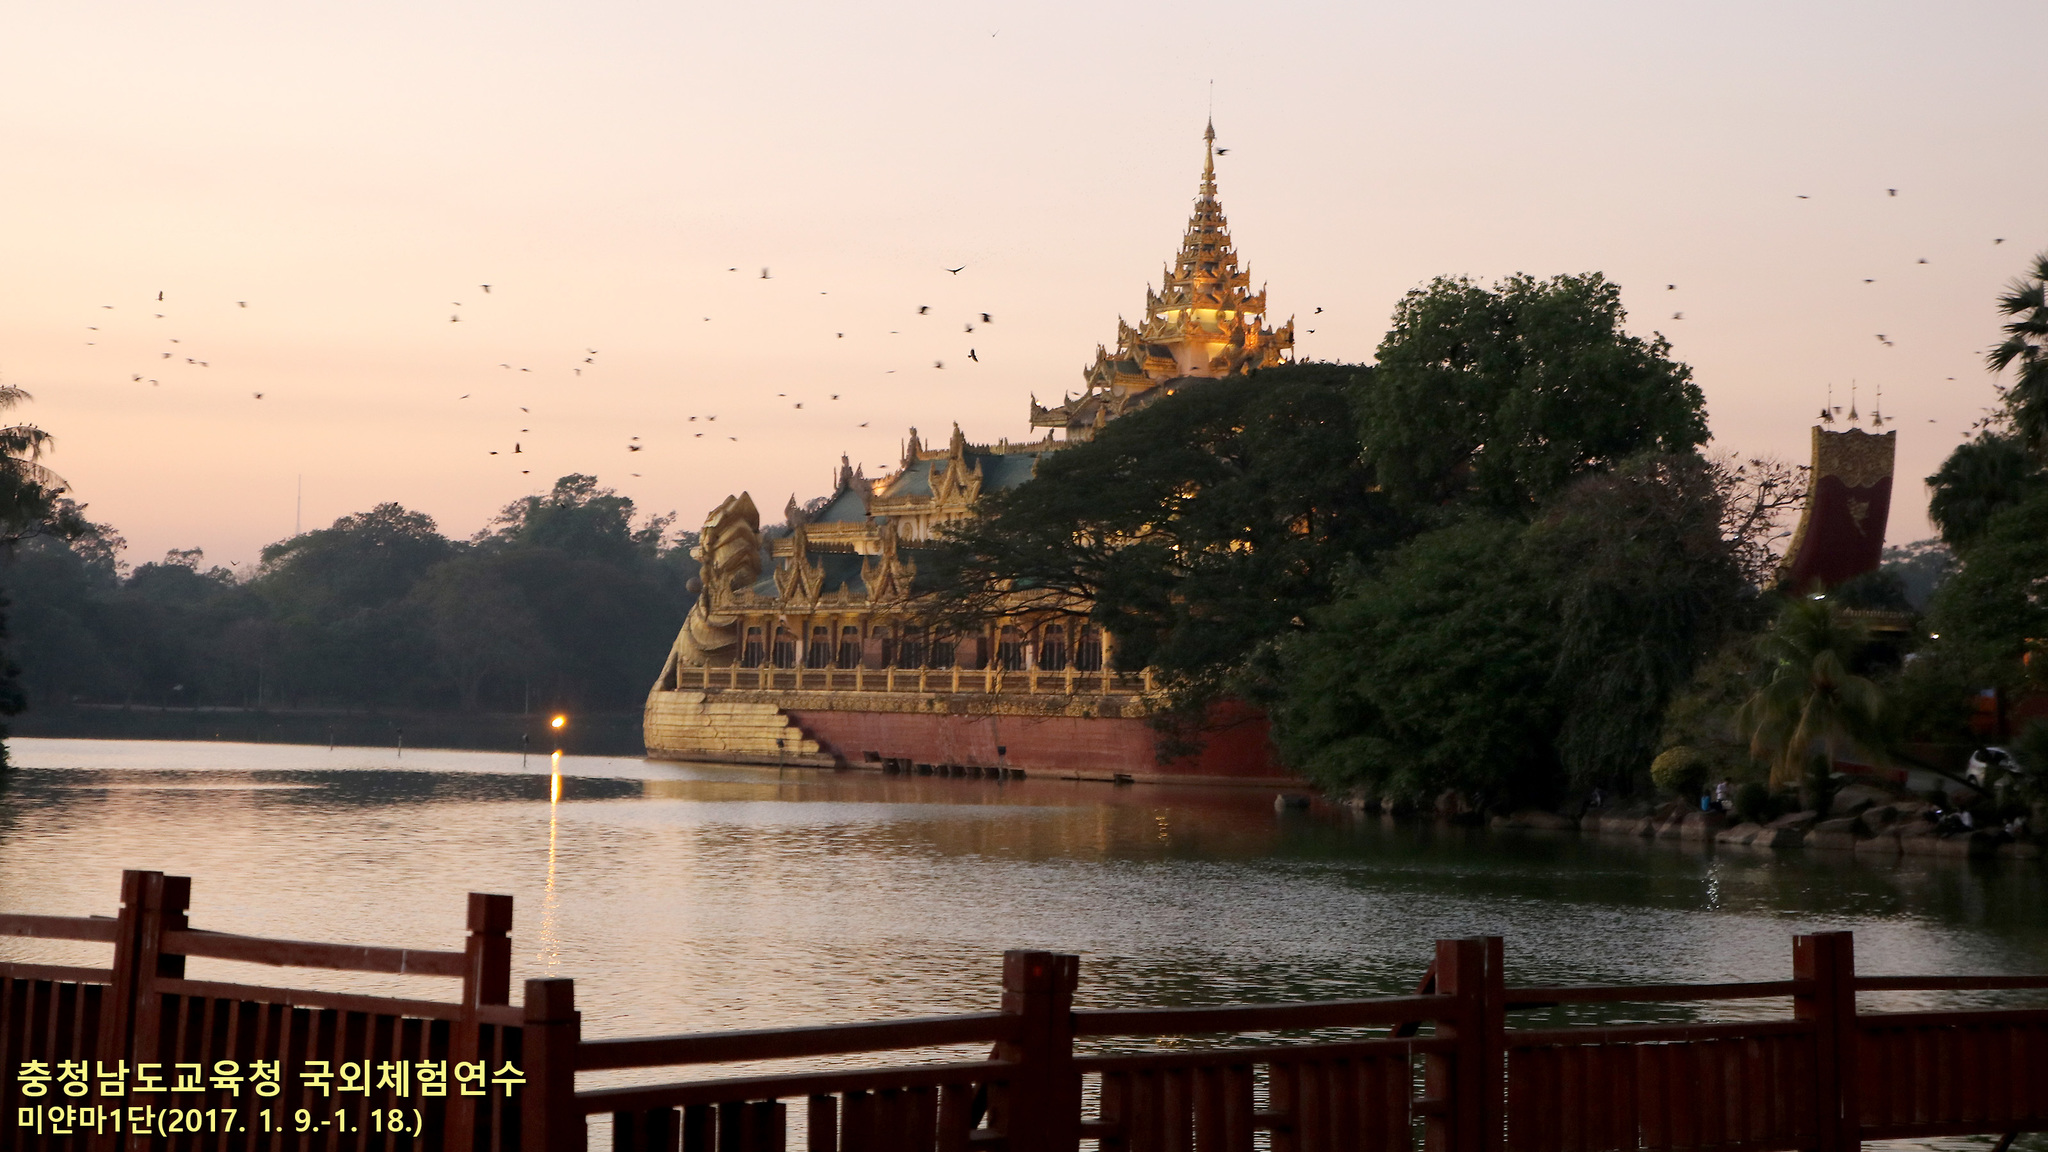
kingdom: Animalia
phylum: Chordata
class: Aves
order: Passeriformes
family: Corvidae
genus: Corvus
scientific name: Corvus splendens
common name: House crow
